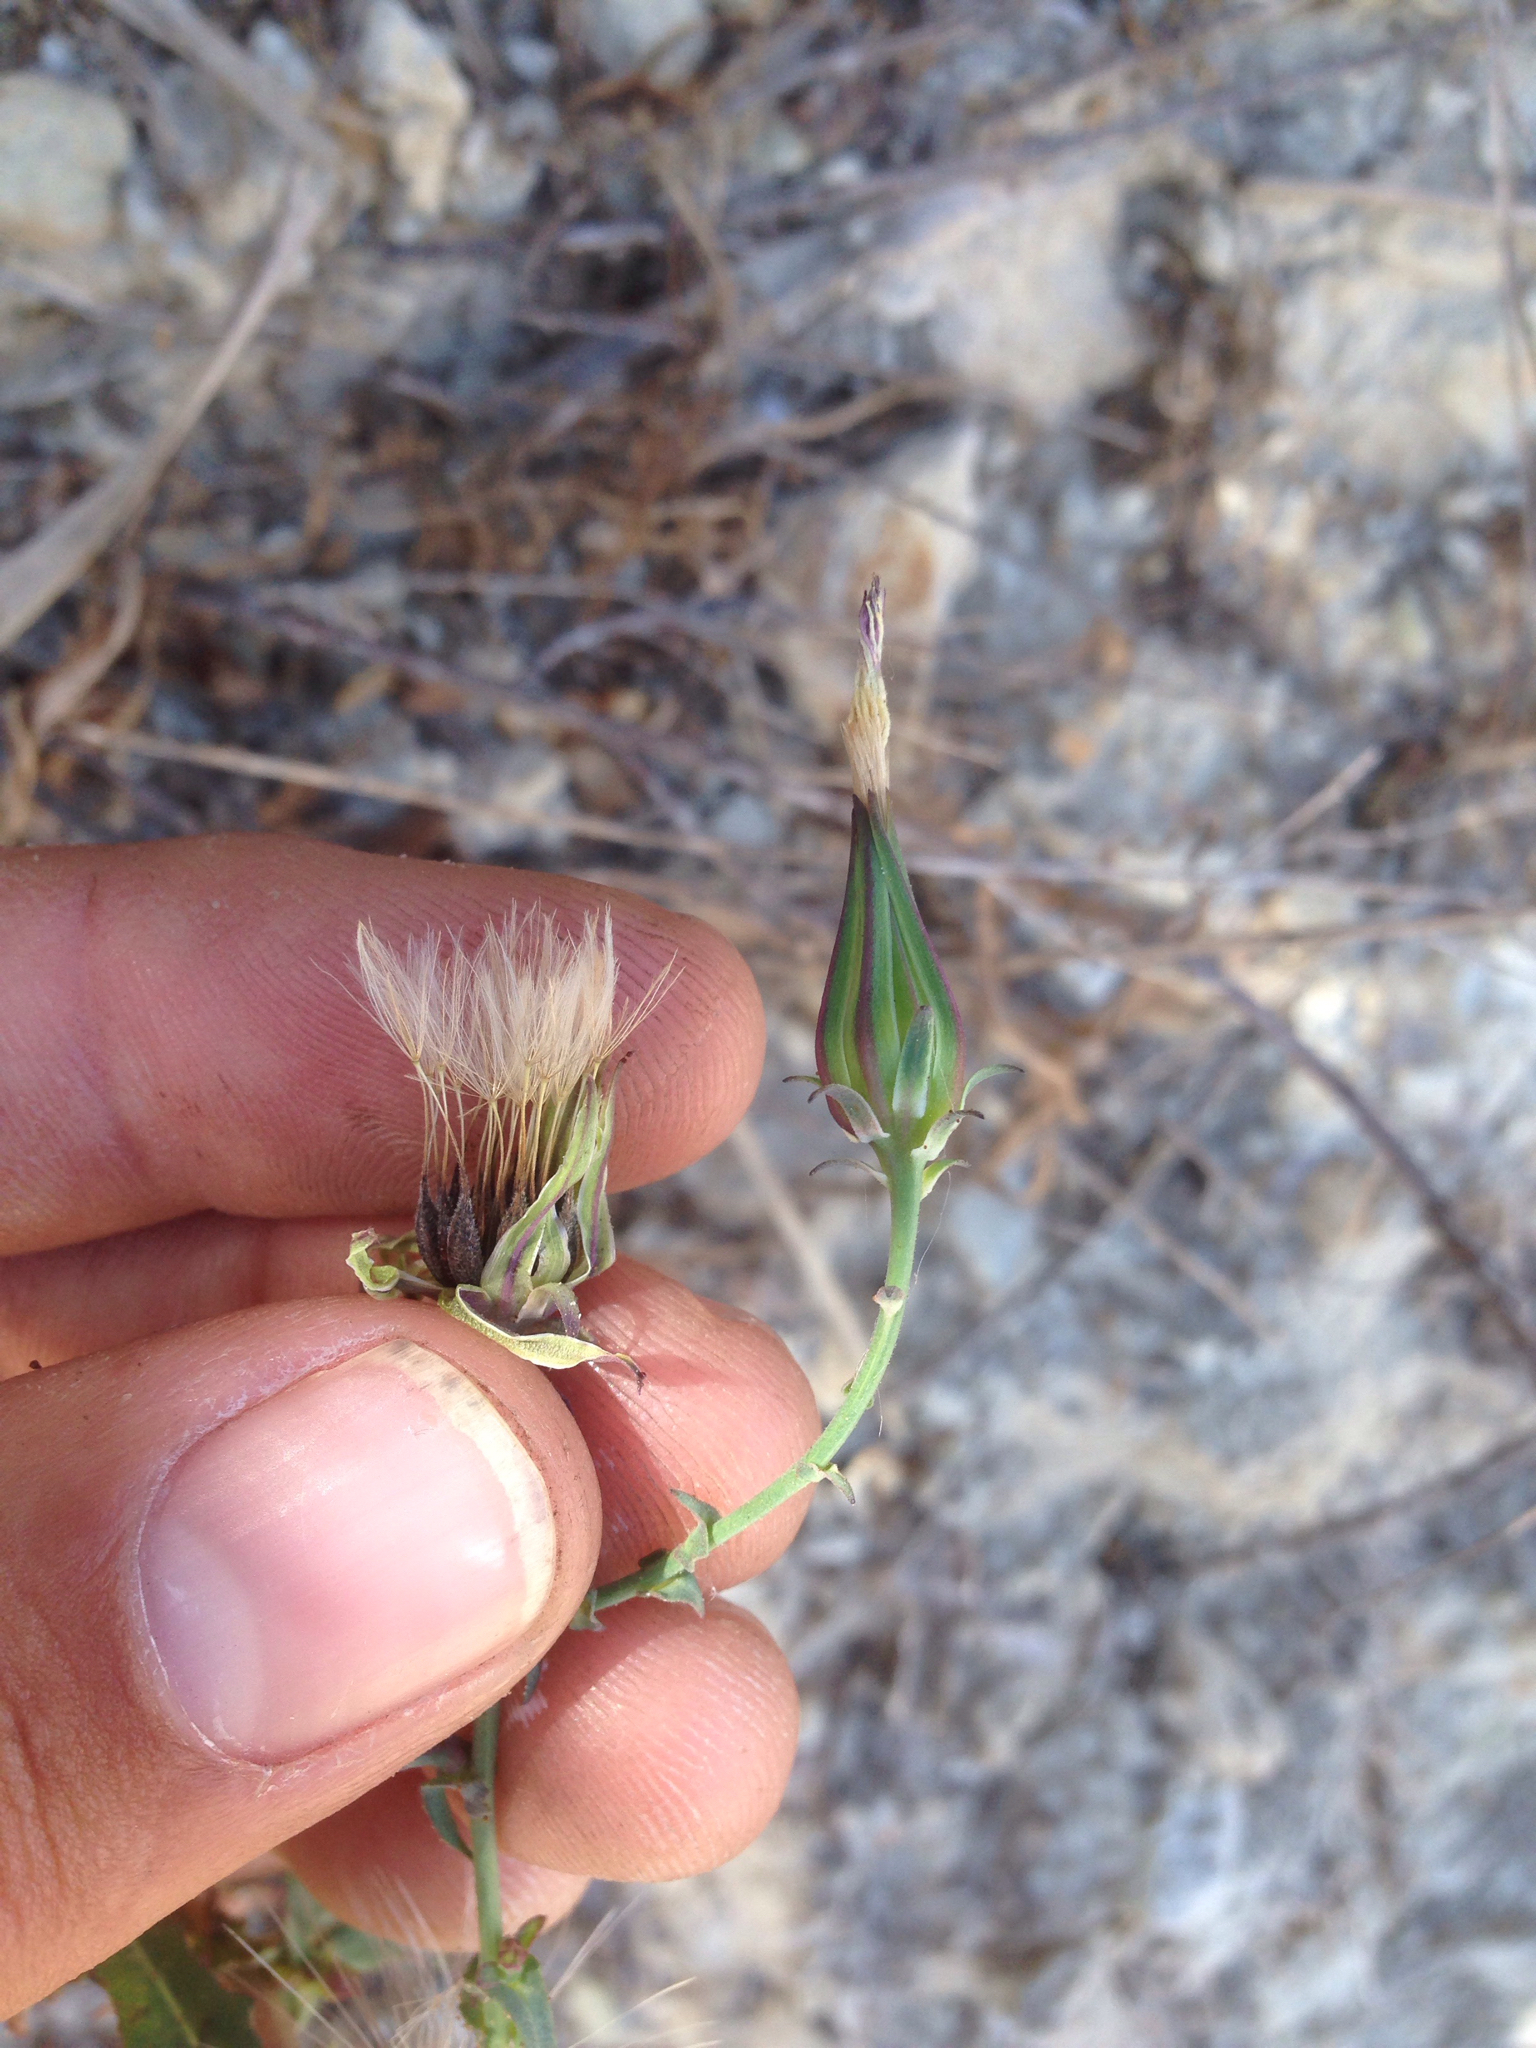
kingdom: Plantae
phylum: Tracheophyta
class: Magnoliopsida
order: Asterales
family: Asteraceae
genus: Rafinesquia
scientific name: Rafinesquia californica
